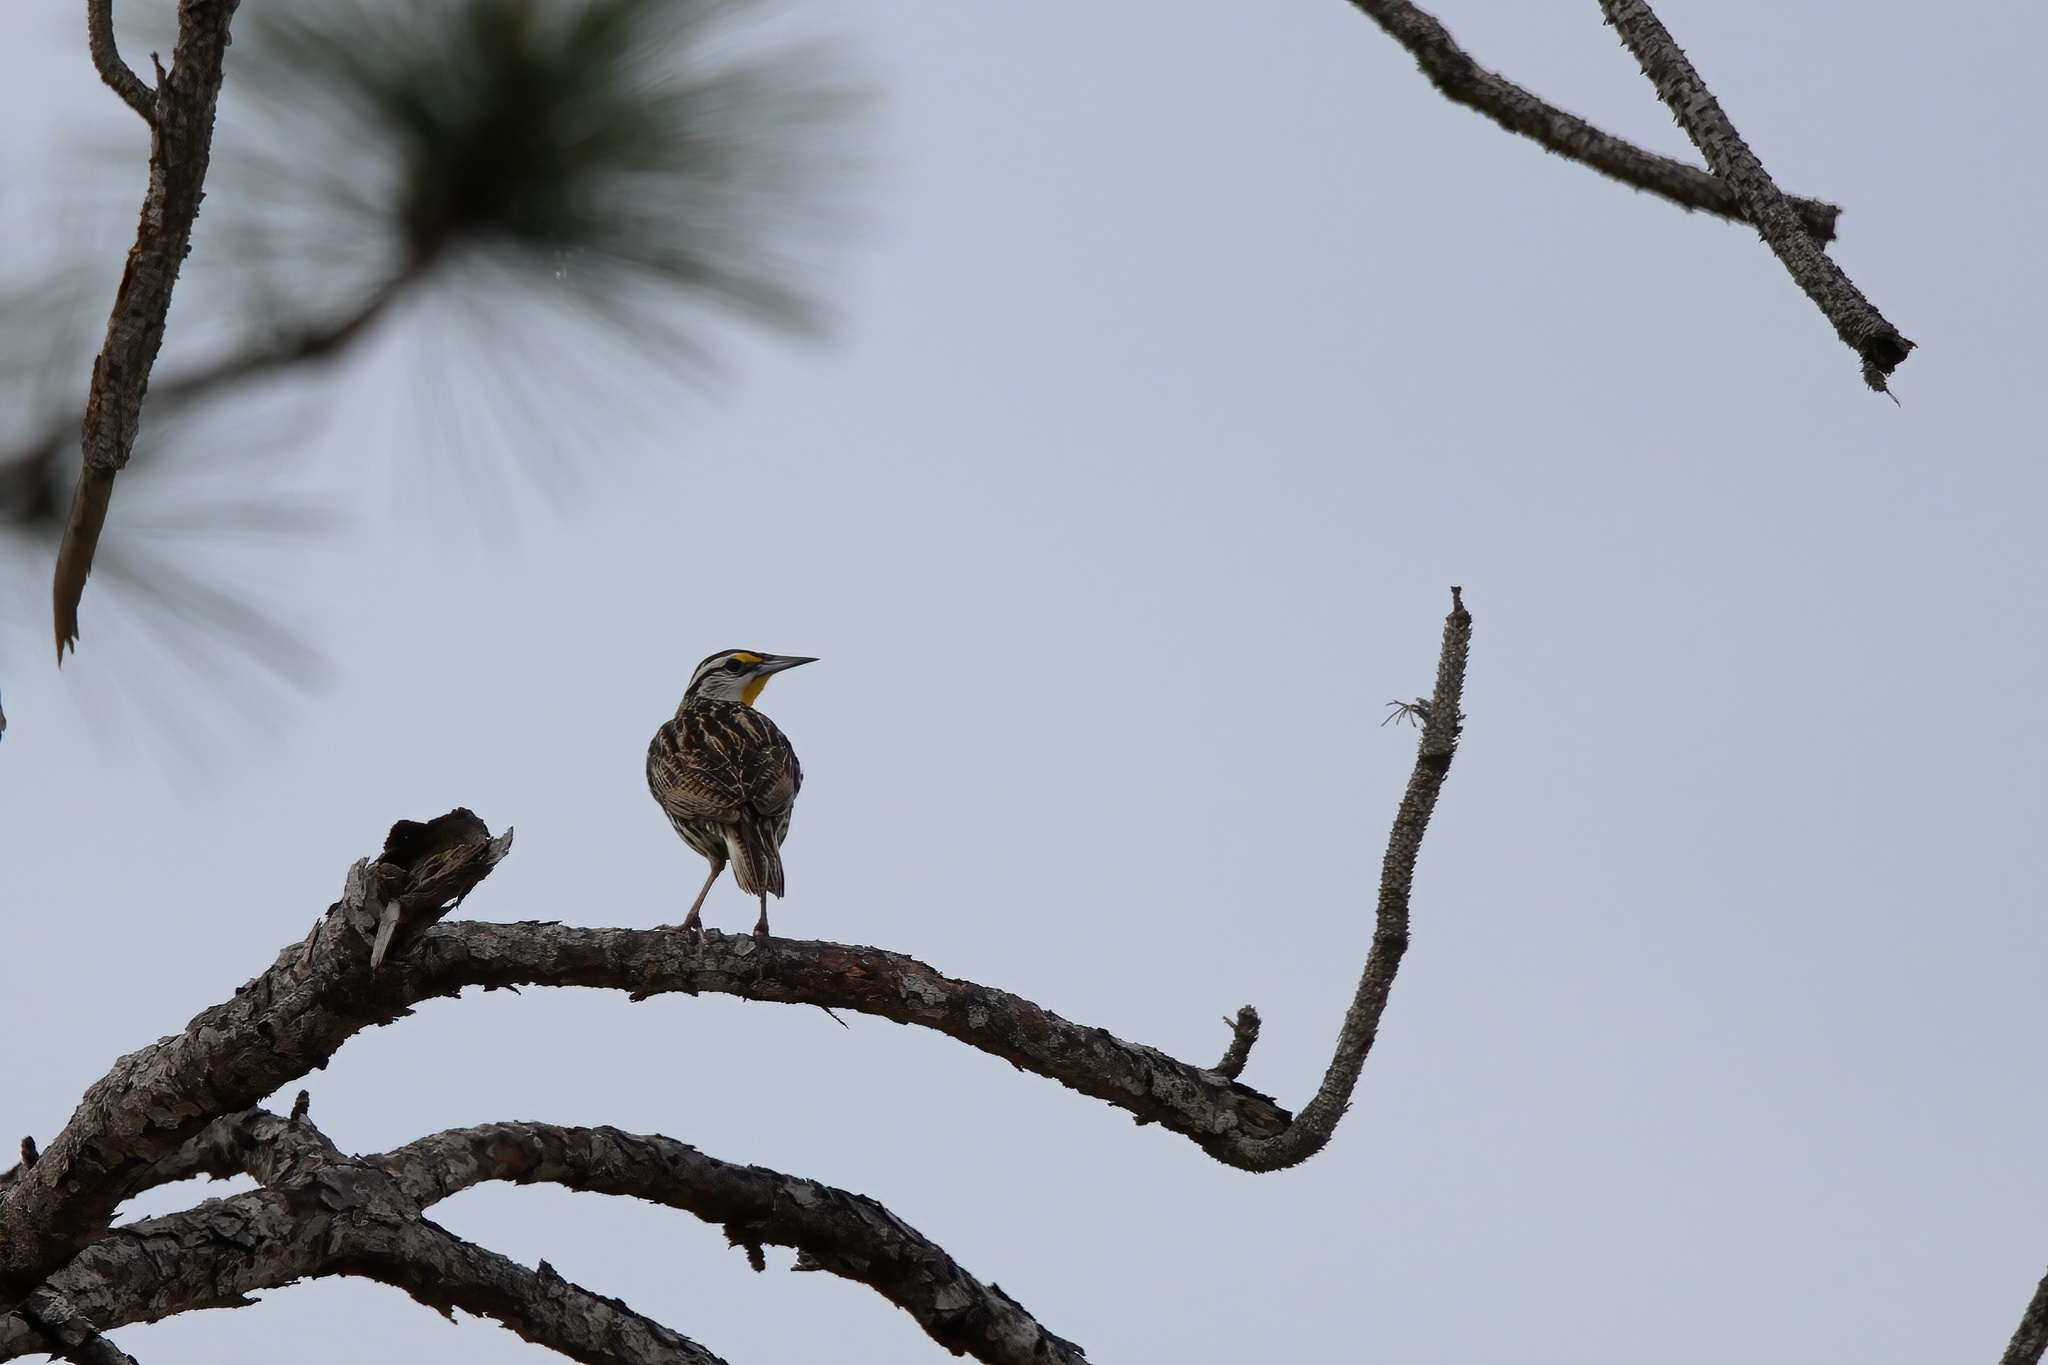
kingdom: Animalia
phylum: Chordata
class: Aves
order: Passeriformes
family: Icteridae
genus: Sturnella
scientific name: Sturnella magna
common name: Eastern meadowlark
